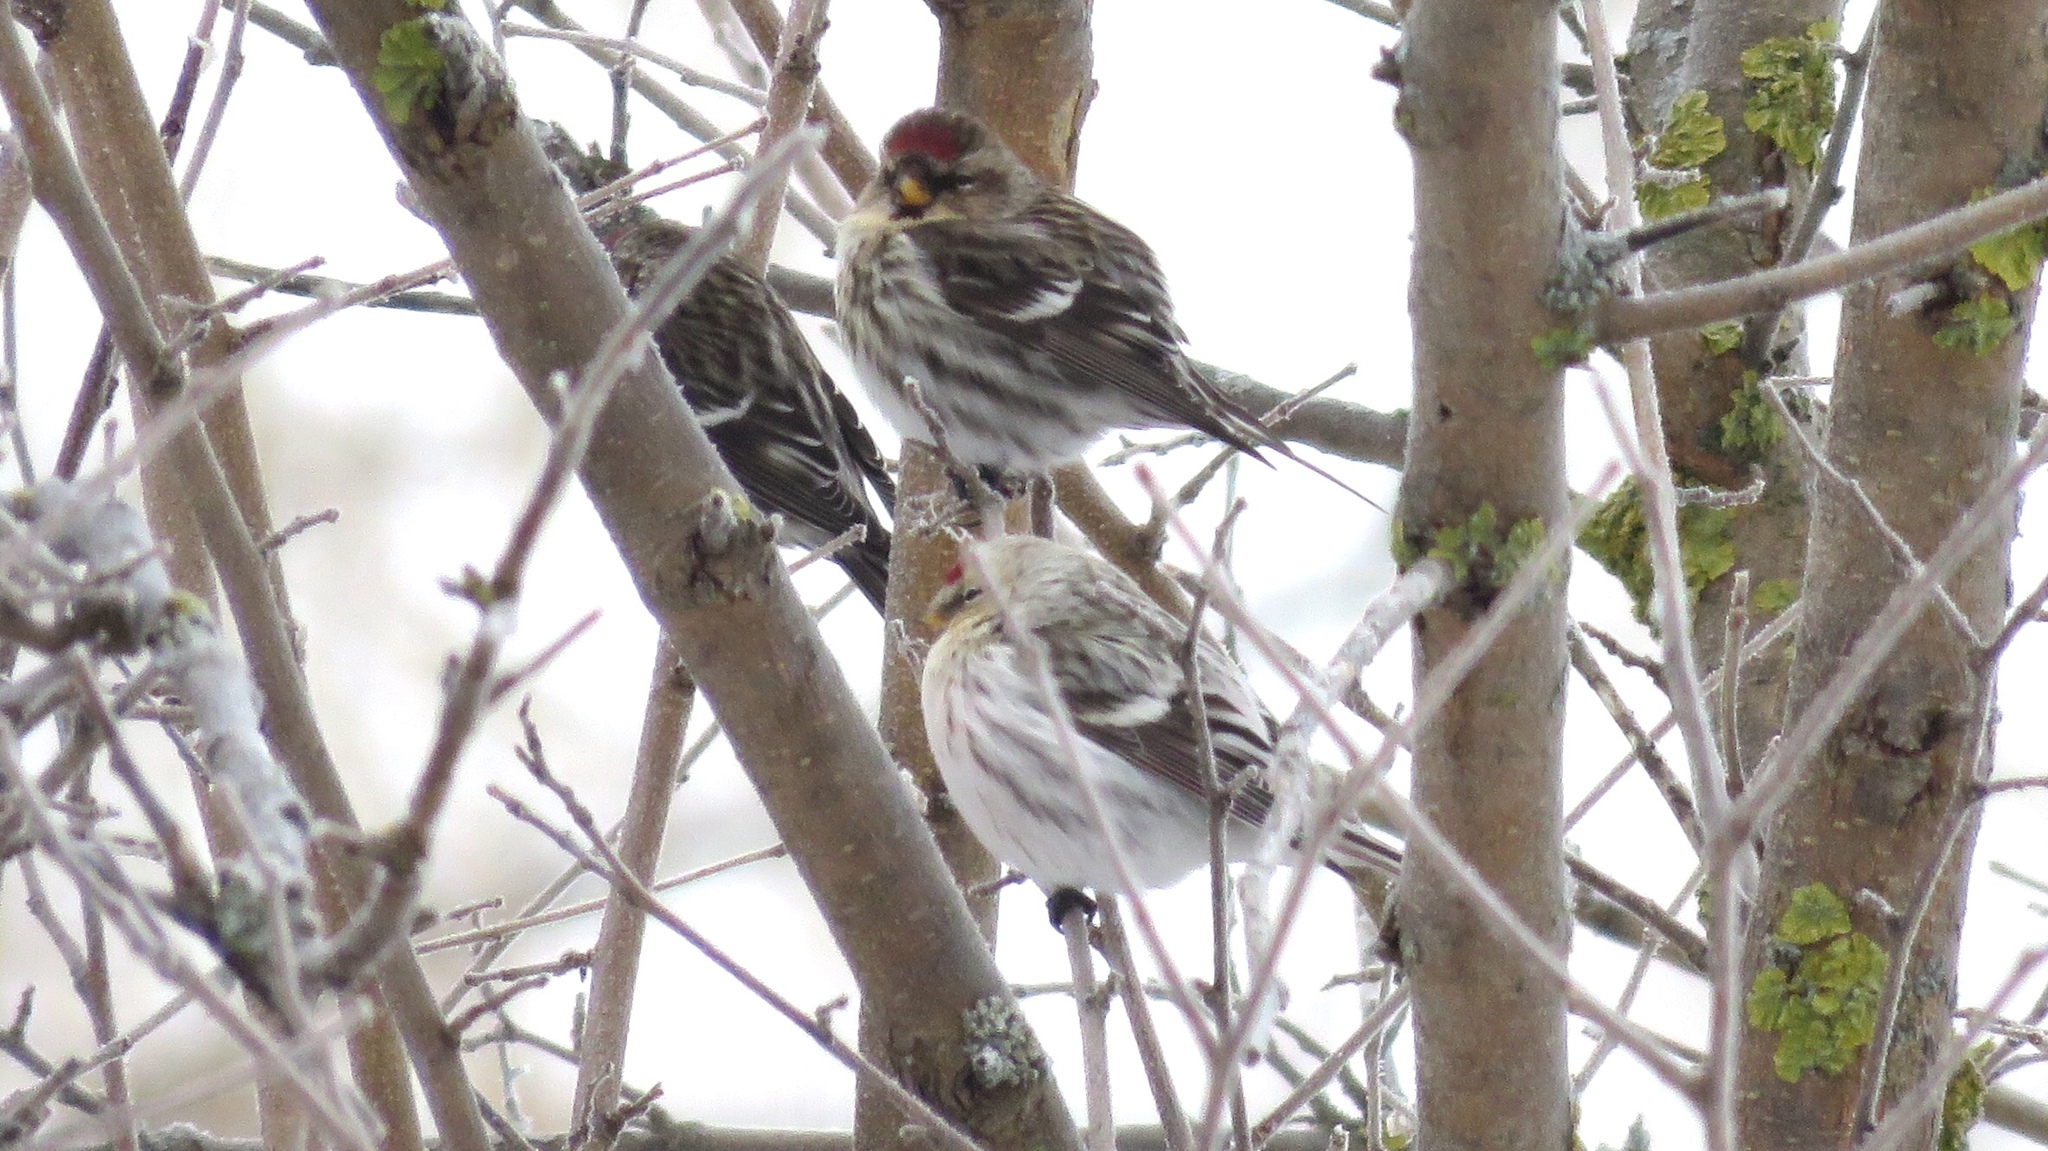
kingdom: Animalia
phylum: Chordata
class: Aves
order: Passeriformes
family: Fringillidae
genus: Acanthis
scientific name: Acanthis hornemanni
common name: Arctic redpoll
